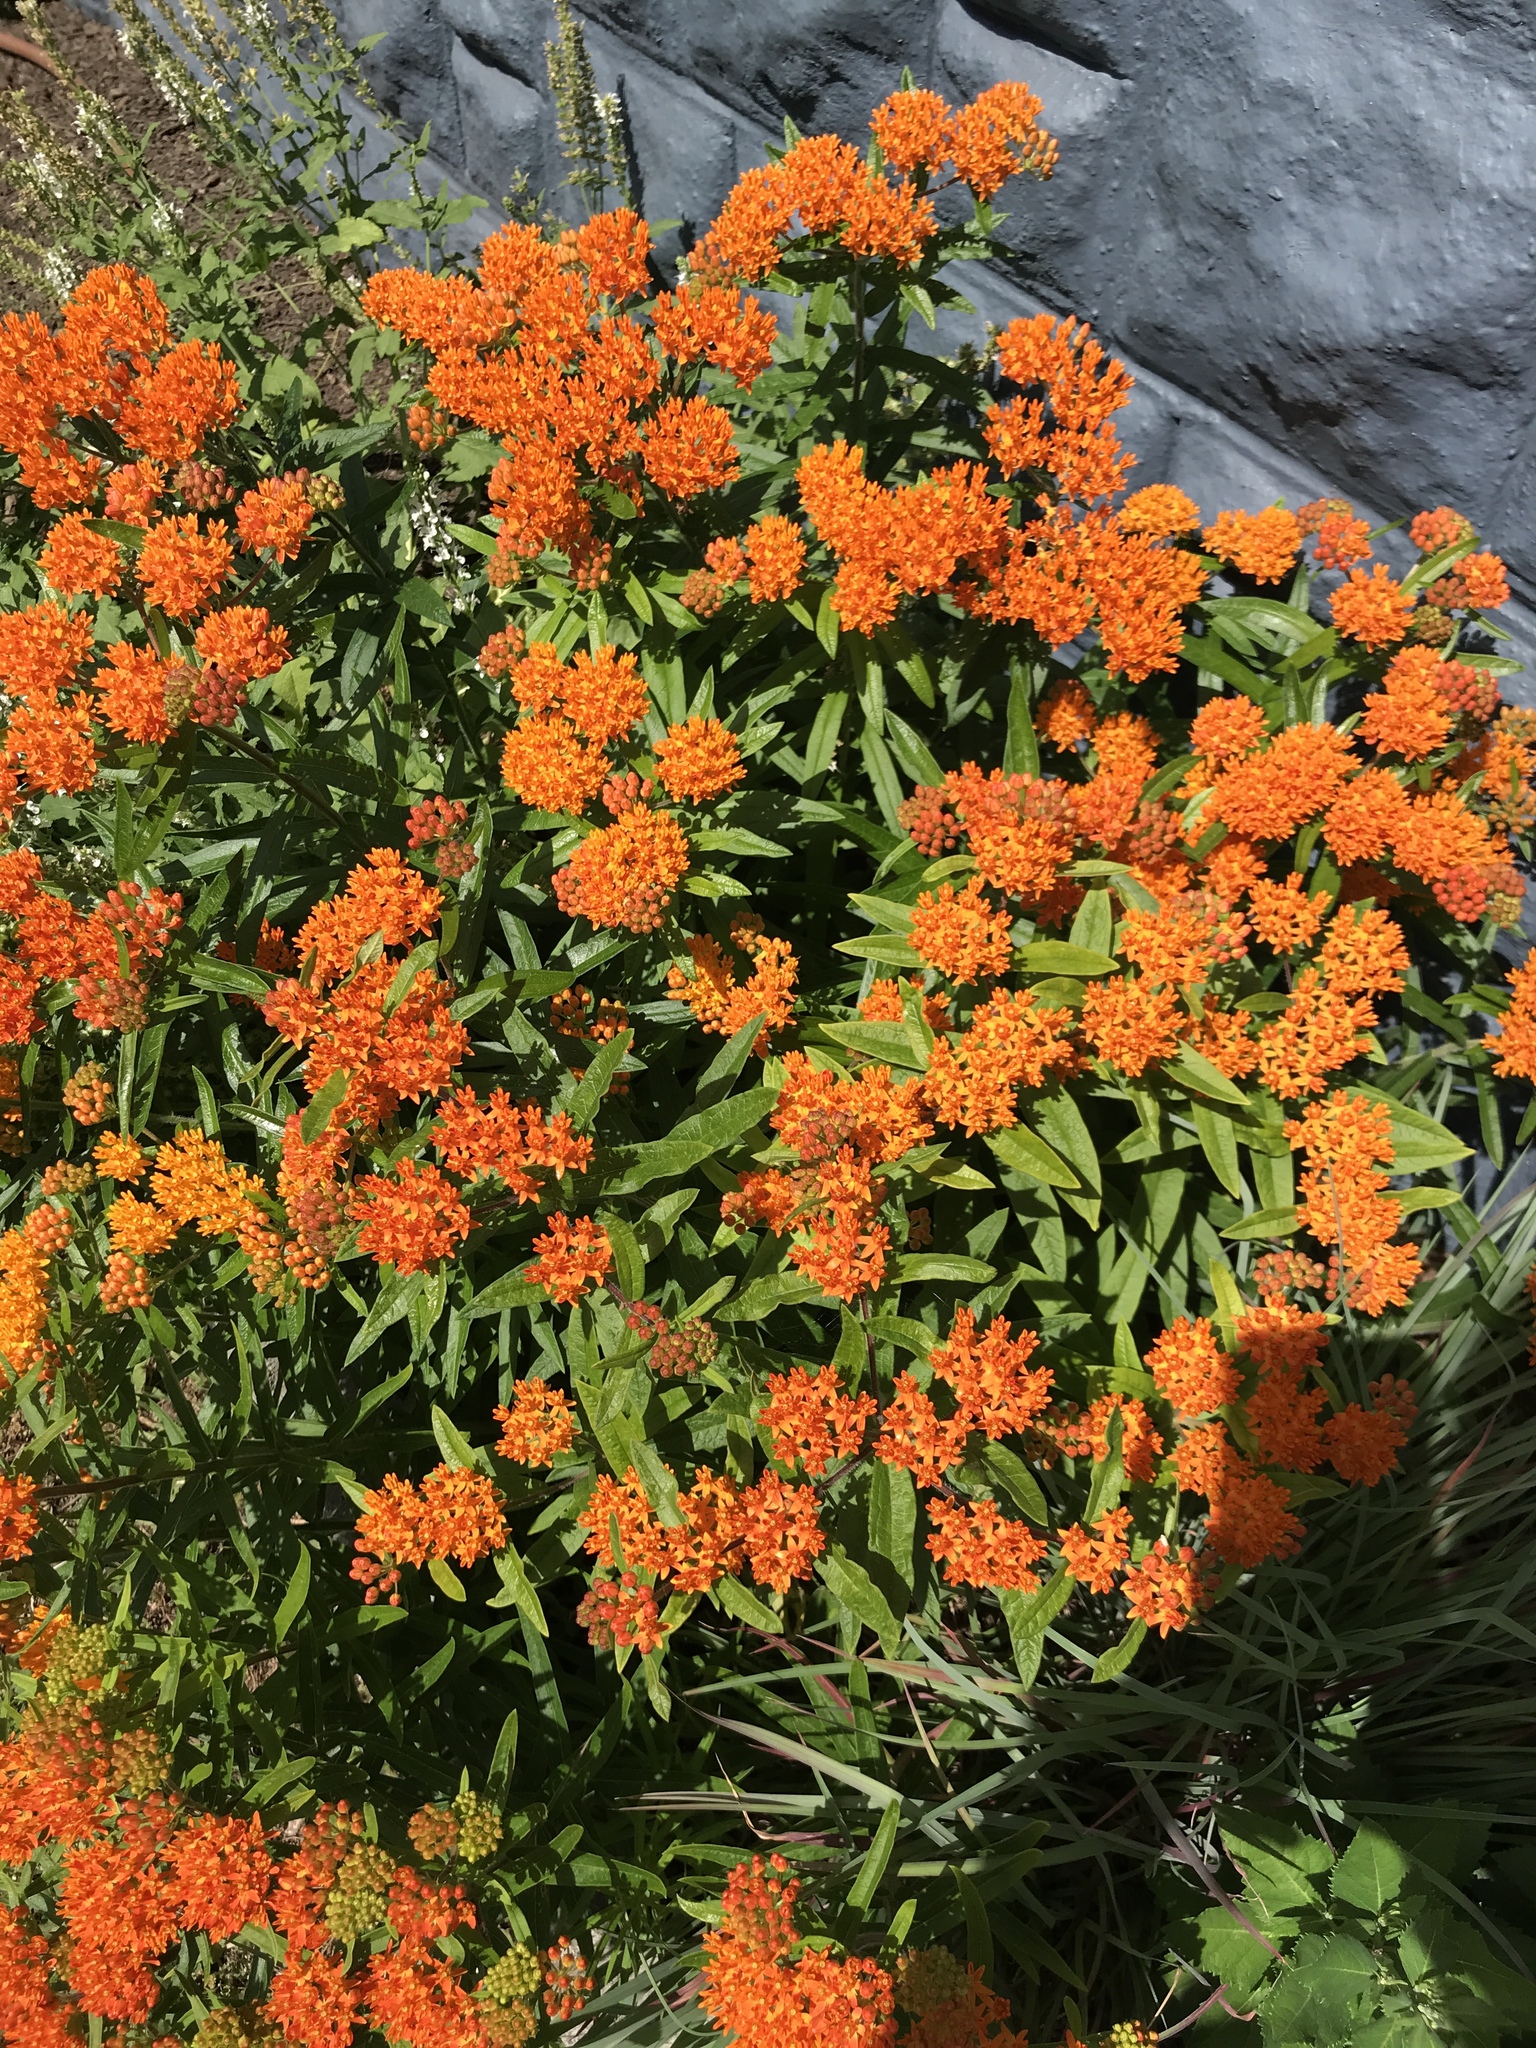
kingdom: Plantae
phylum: Tracheophyta
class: Magnoliopsida
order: Gentianales
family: Apocynaceae
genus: Asclepias
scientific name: Asclepias tuberosa
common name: Butterfly milkweed
